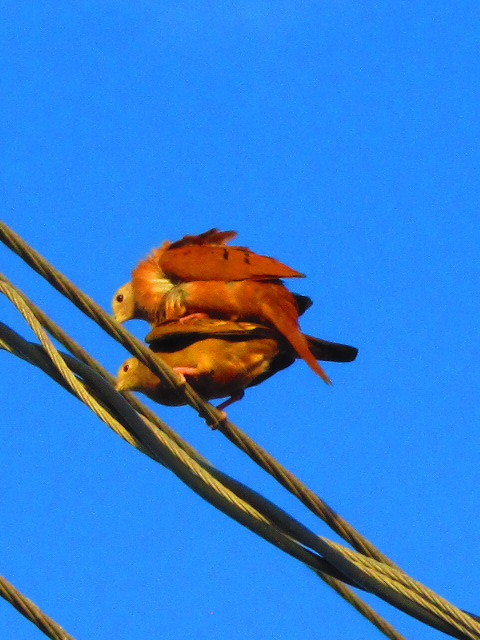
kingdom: Animalia
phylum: Chordata
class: Aves
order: Columbiformes
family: Columbidae
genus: Columbina
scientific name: Columbina talpacoti
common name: Ruddy ground dove
